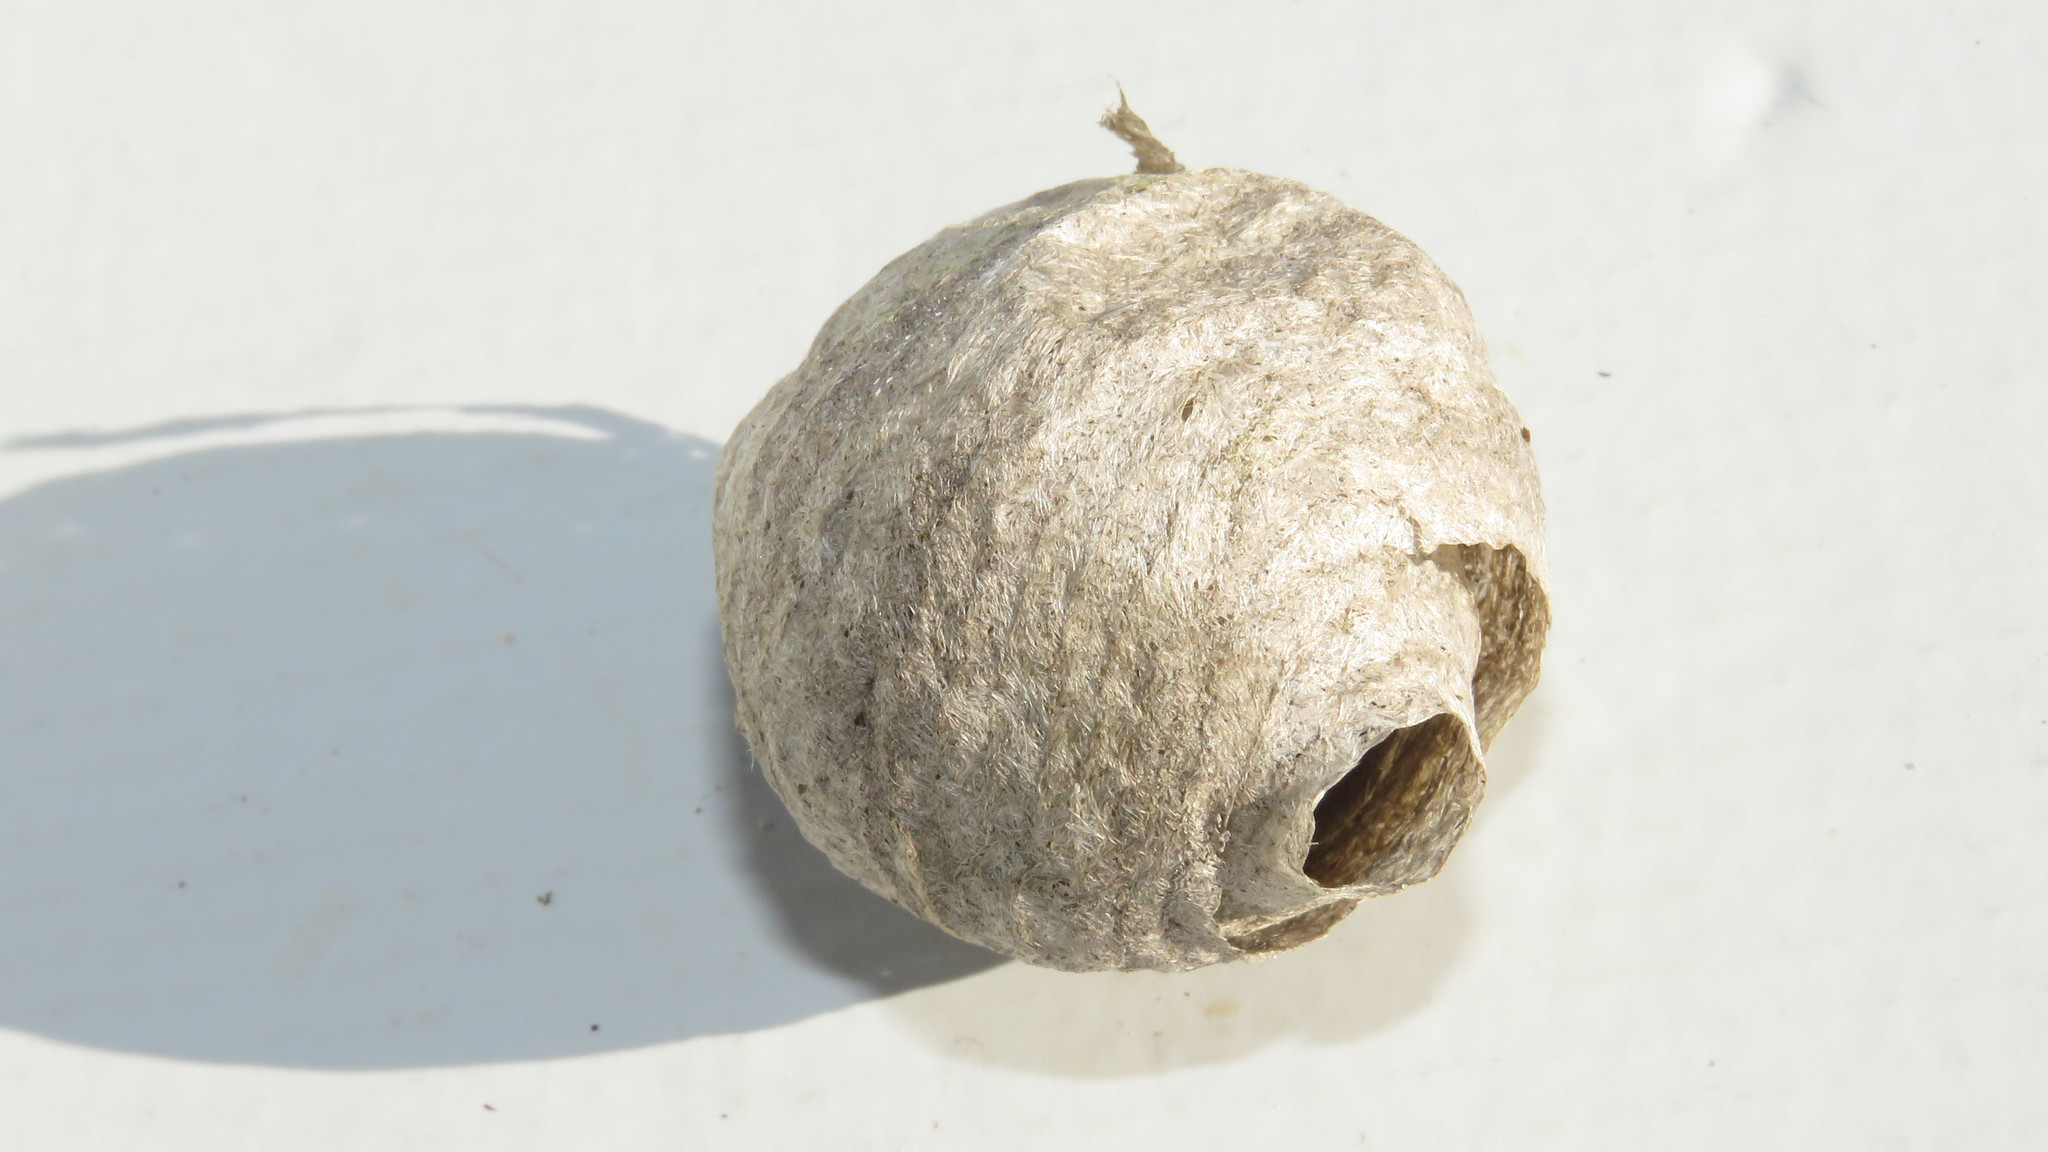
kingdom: Animalia
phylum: Arthropoda
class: Insecta
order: Hymenoptera
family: Vespidae
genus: Dolichovespula
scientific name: Dolichovespula arenaria
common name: Aerial yellowjacket
